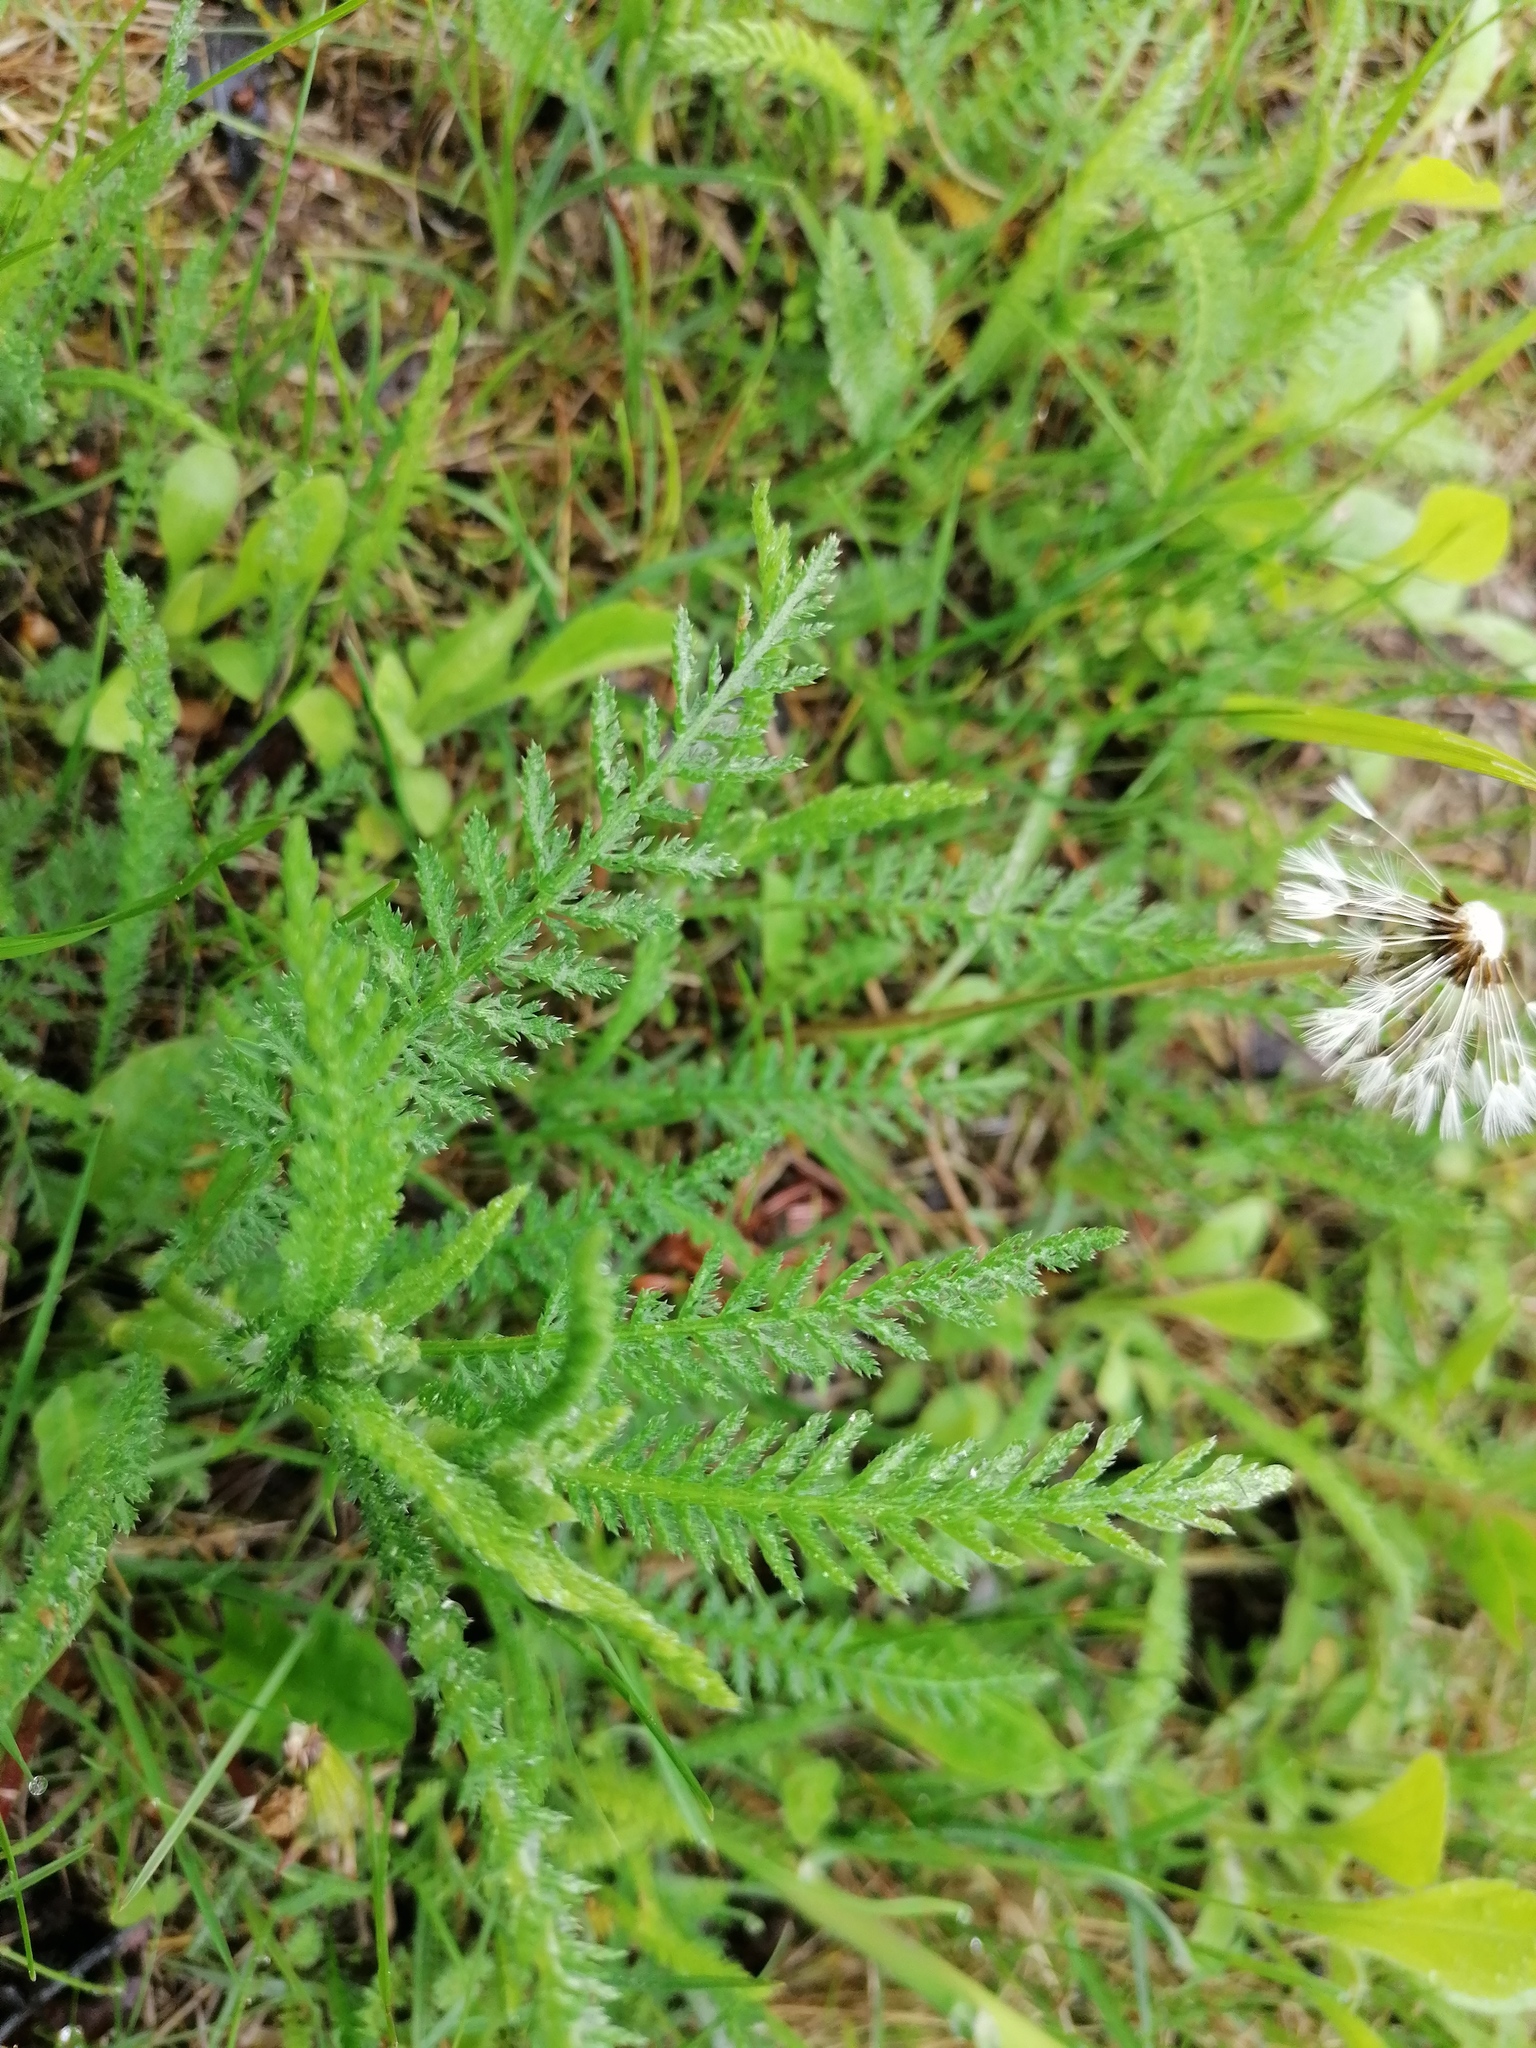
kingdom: Plantae
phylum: Tracheophyta
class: Magnoliopsida
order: Asterales
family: Asteraceae
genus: Achillea
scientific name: Achillea millefolium
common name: Yarrow
